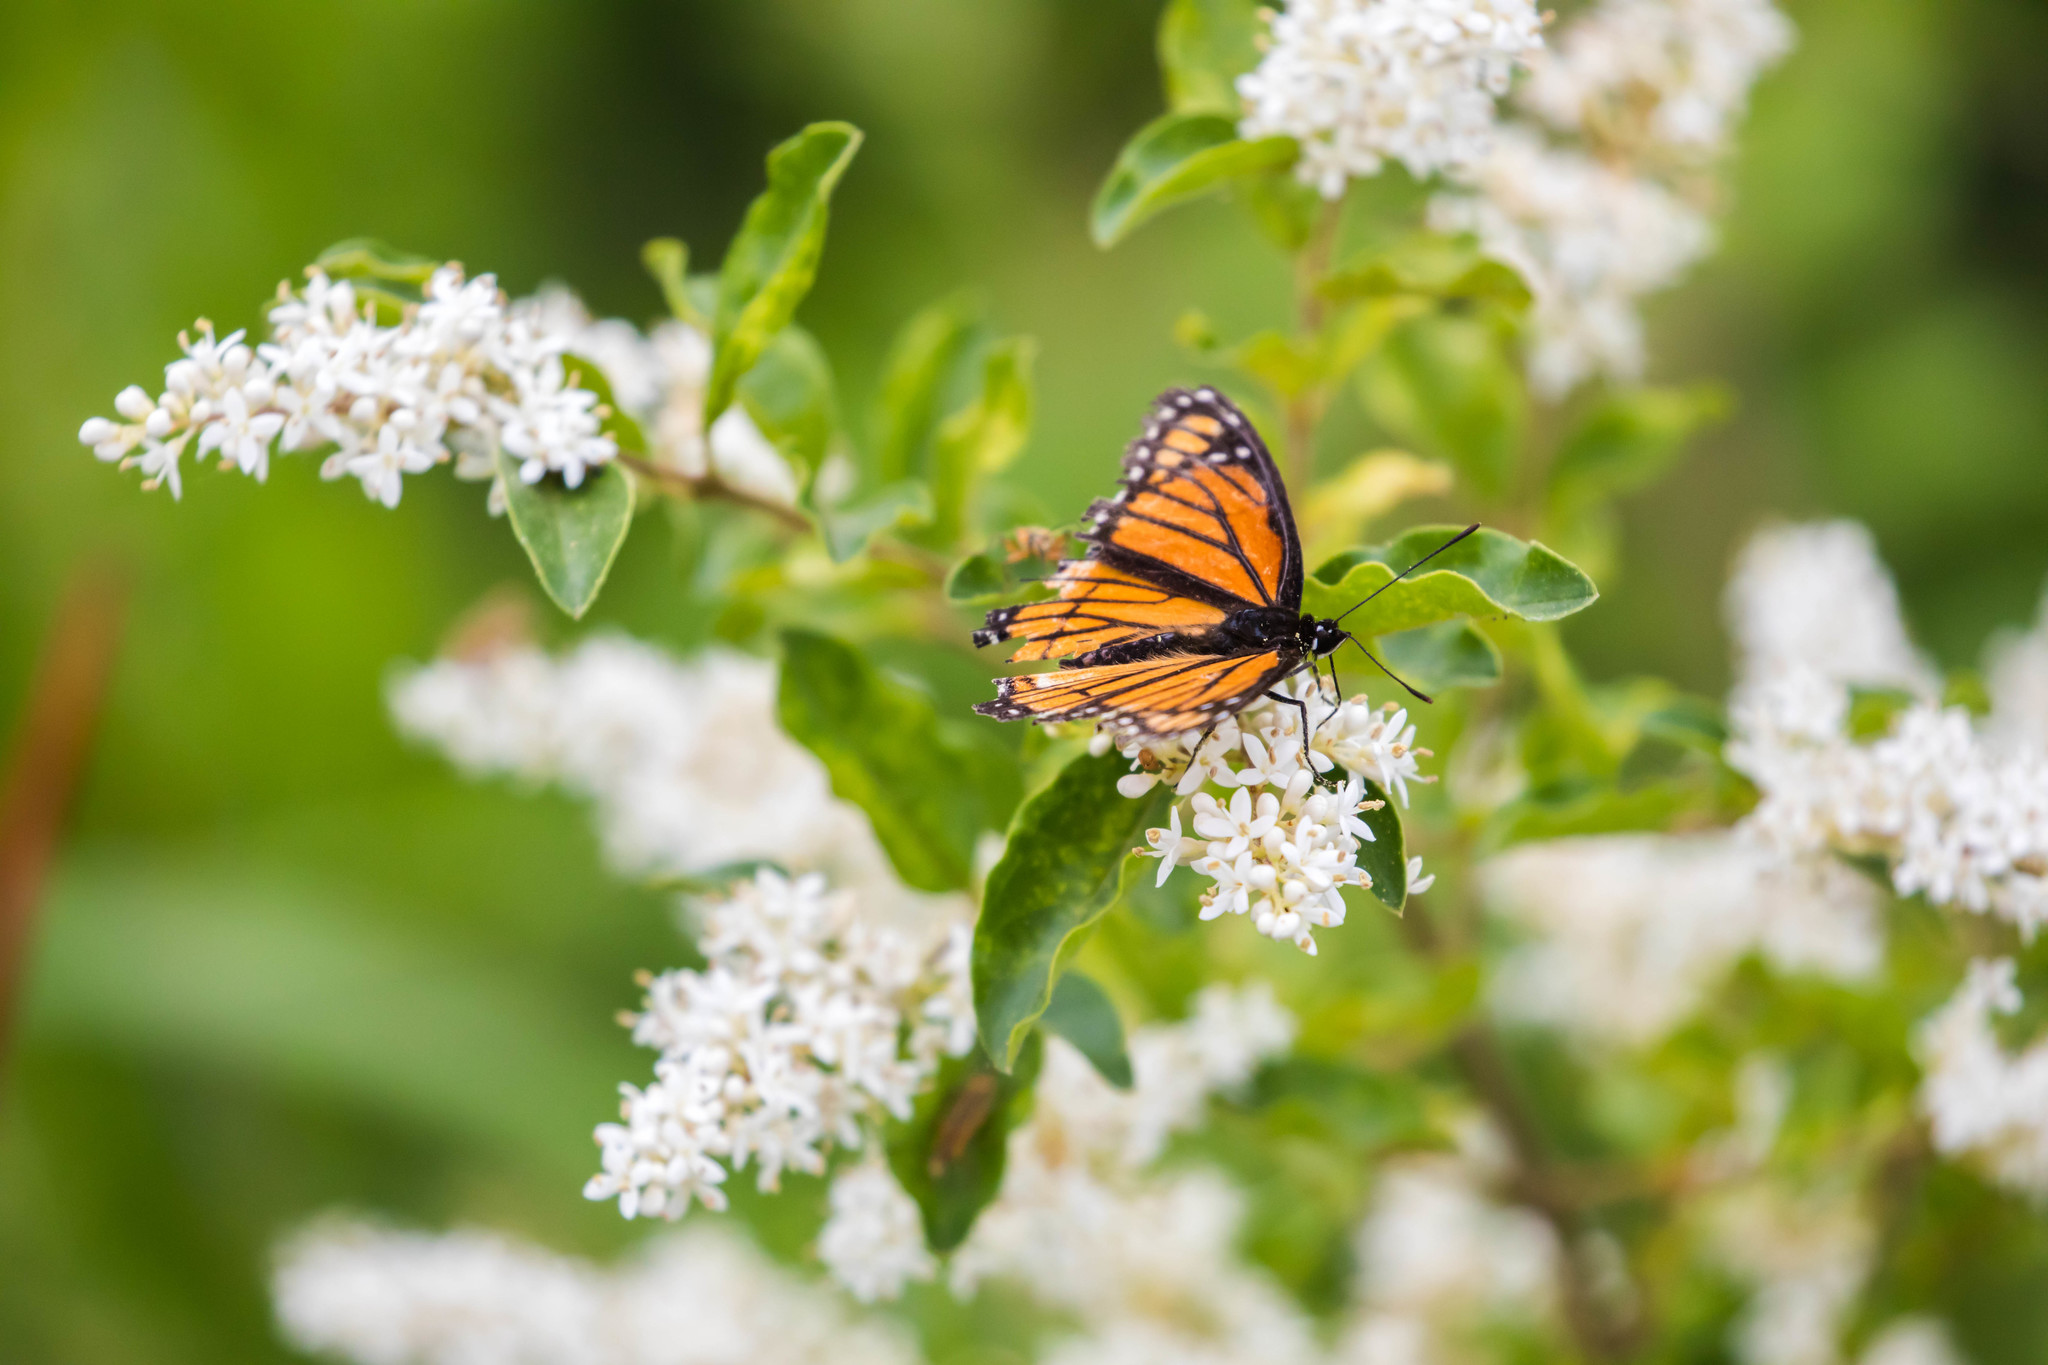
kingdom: Animalia
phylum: Arthropoda
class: Insecta
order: Lepidoptera
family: Nymphalidae
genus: Limenitis
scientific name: Limenitis archippus
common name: Viceroy
